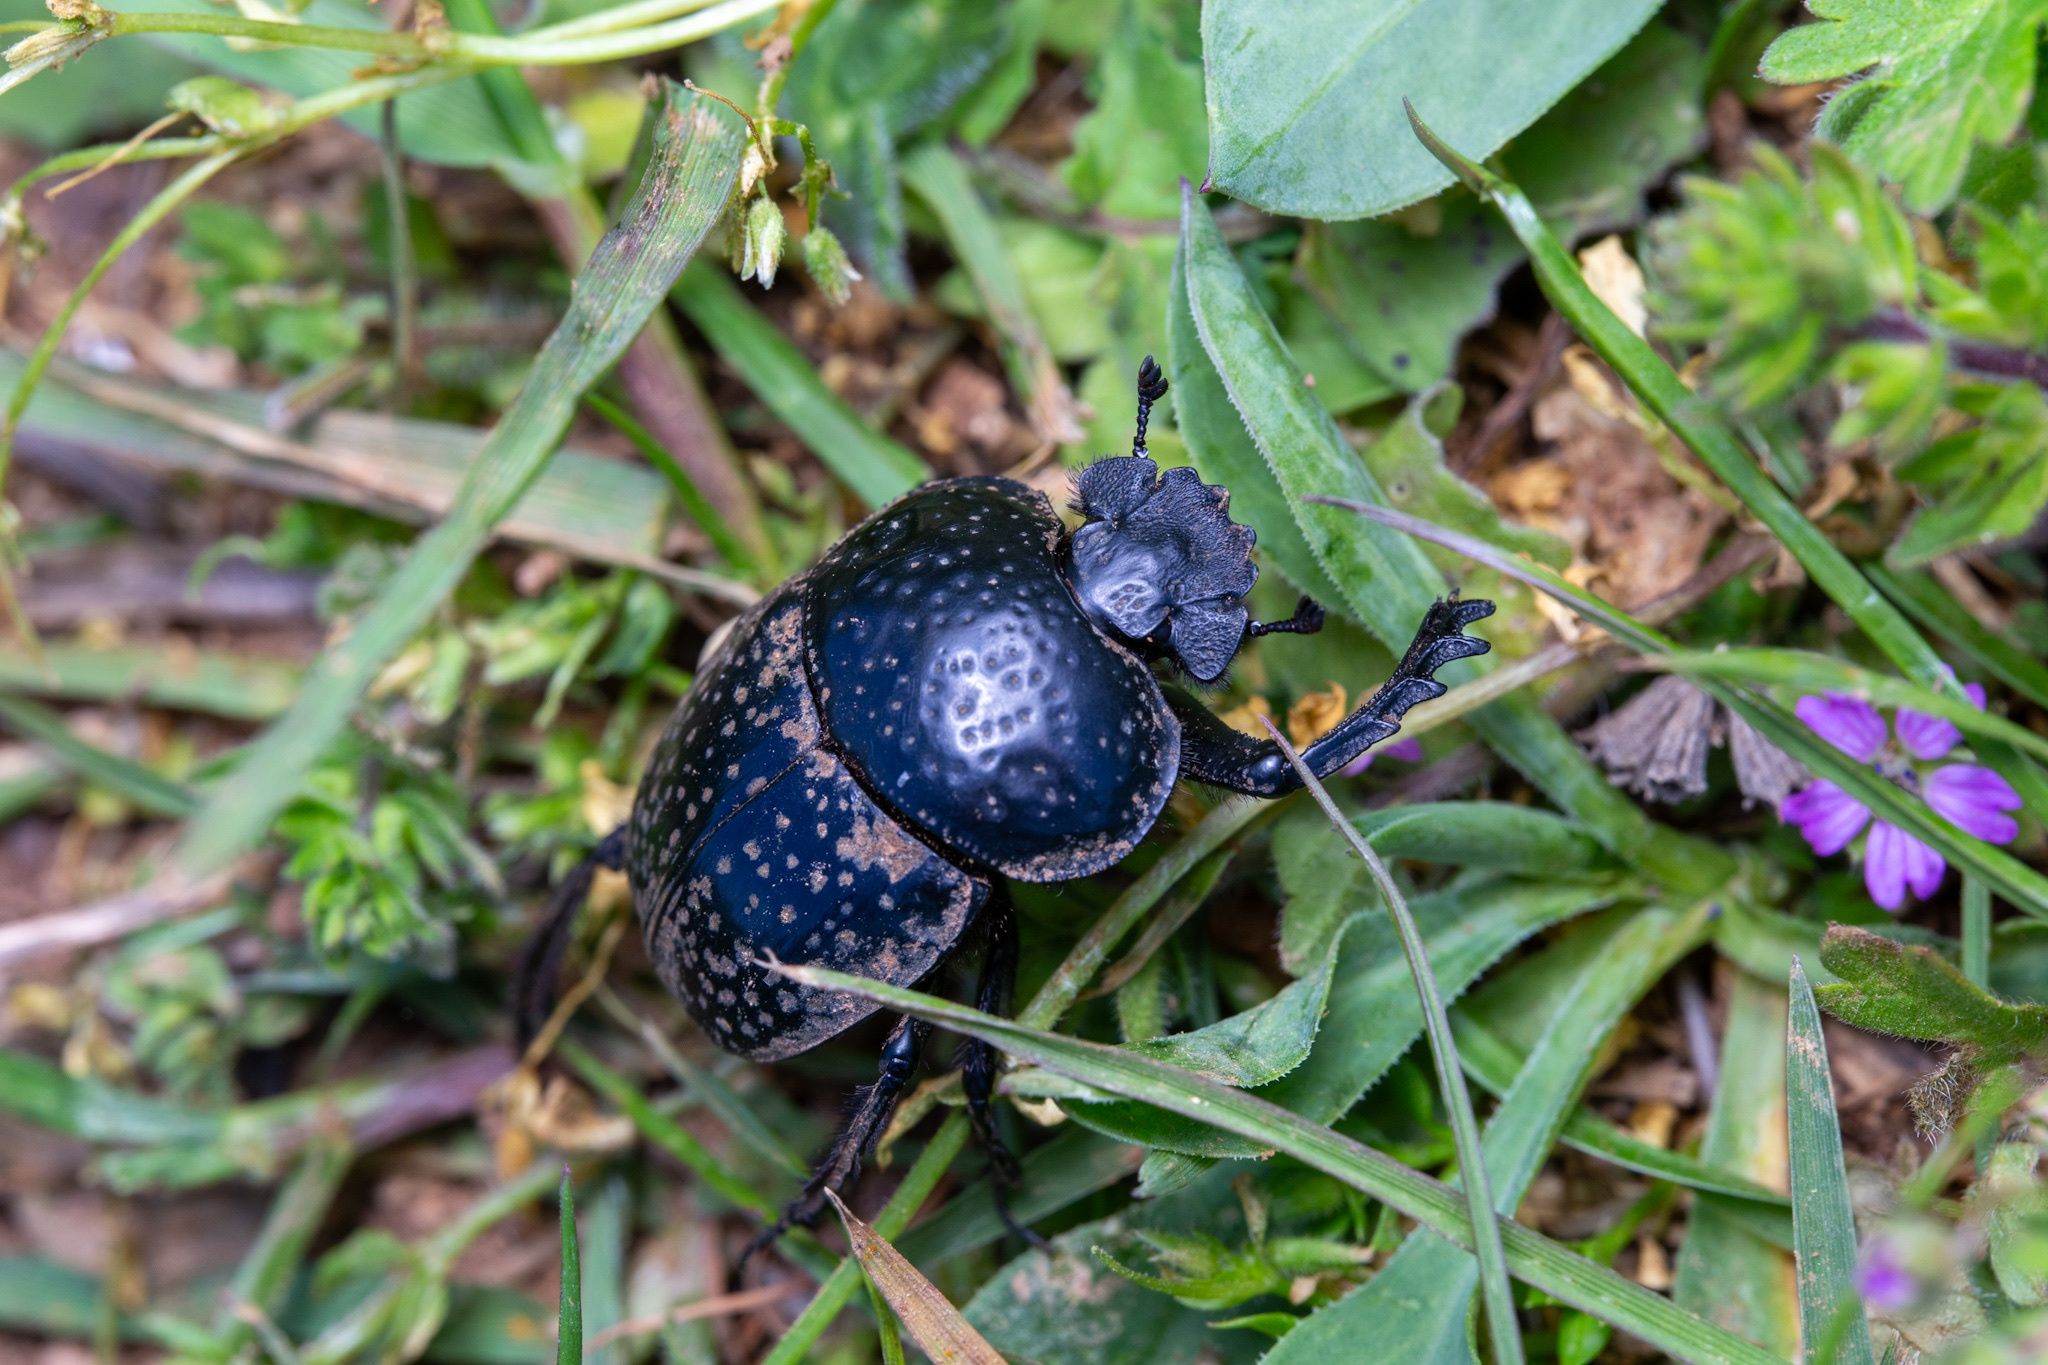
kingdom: Animalia
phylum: Arthropoda
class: Insecta
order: Coleoptera
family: Scarabaeidae
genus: Ateuchetus
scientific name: Ateuchetus
